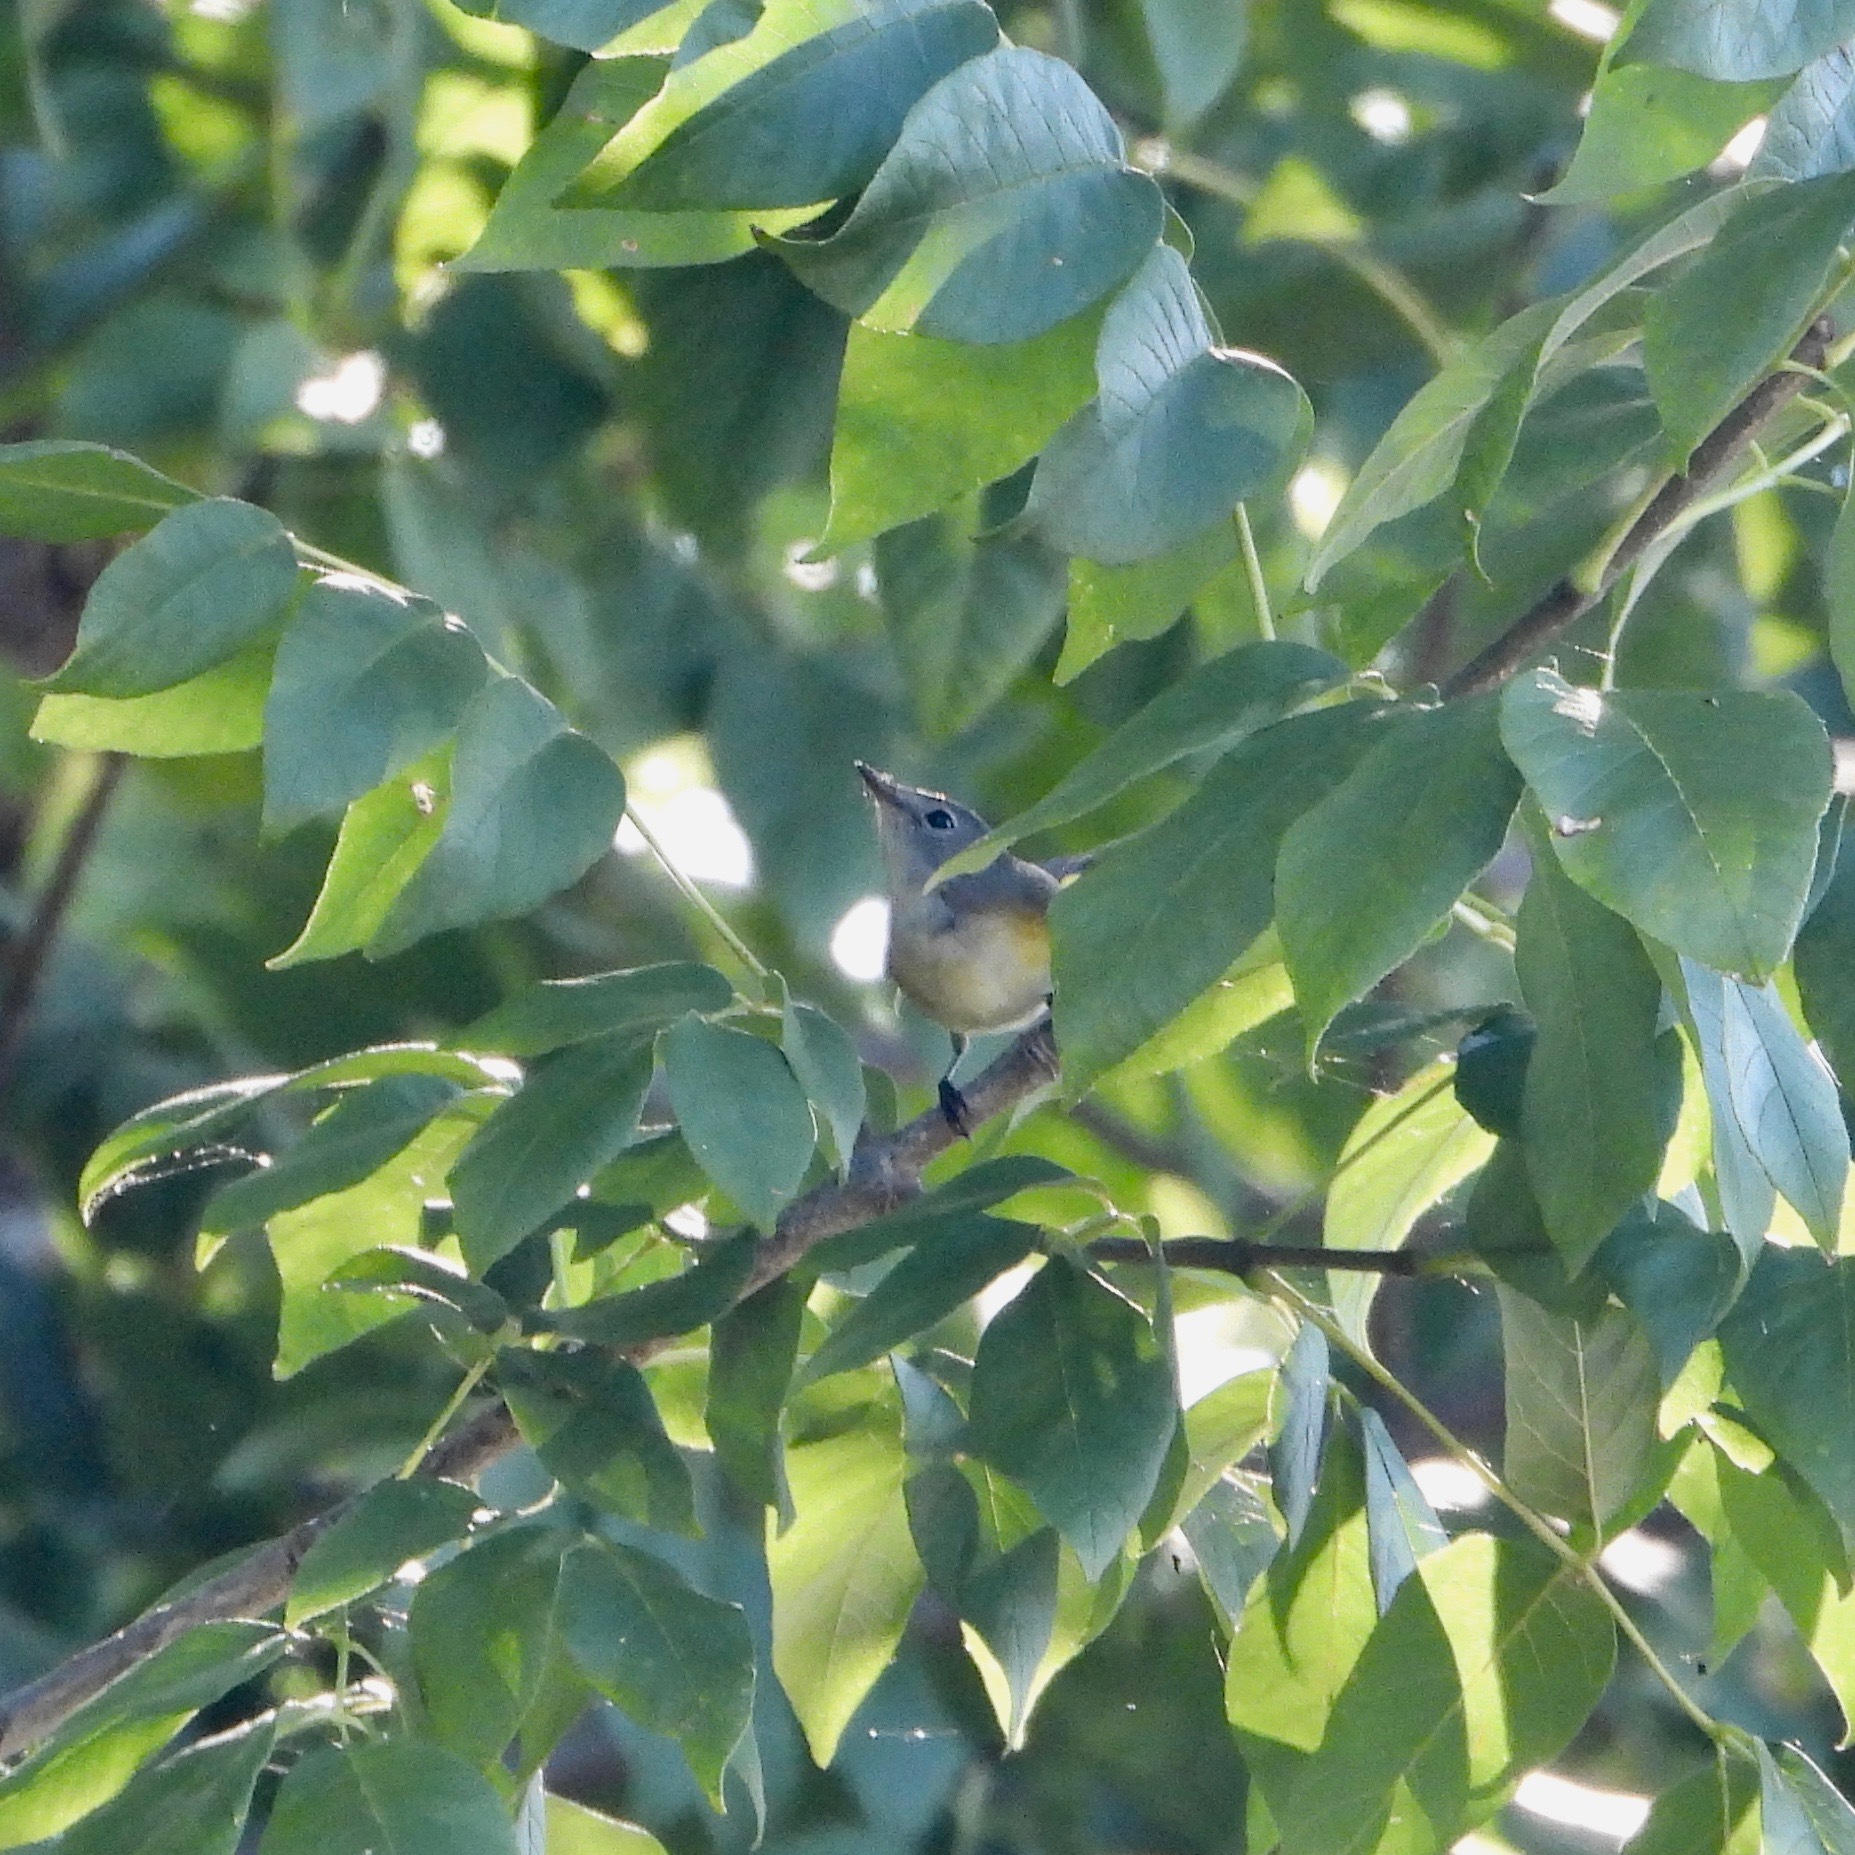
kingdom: Animalia
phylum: Chordata
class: Aves
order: Passeriformes
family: Parulidae
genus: Setophaga
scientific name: Setophaga ruticilla
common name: American redstart
